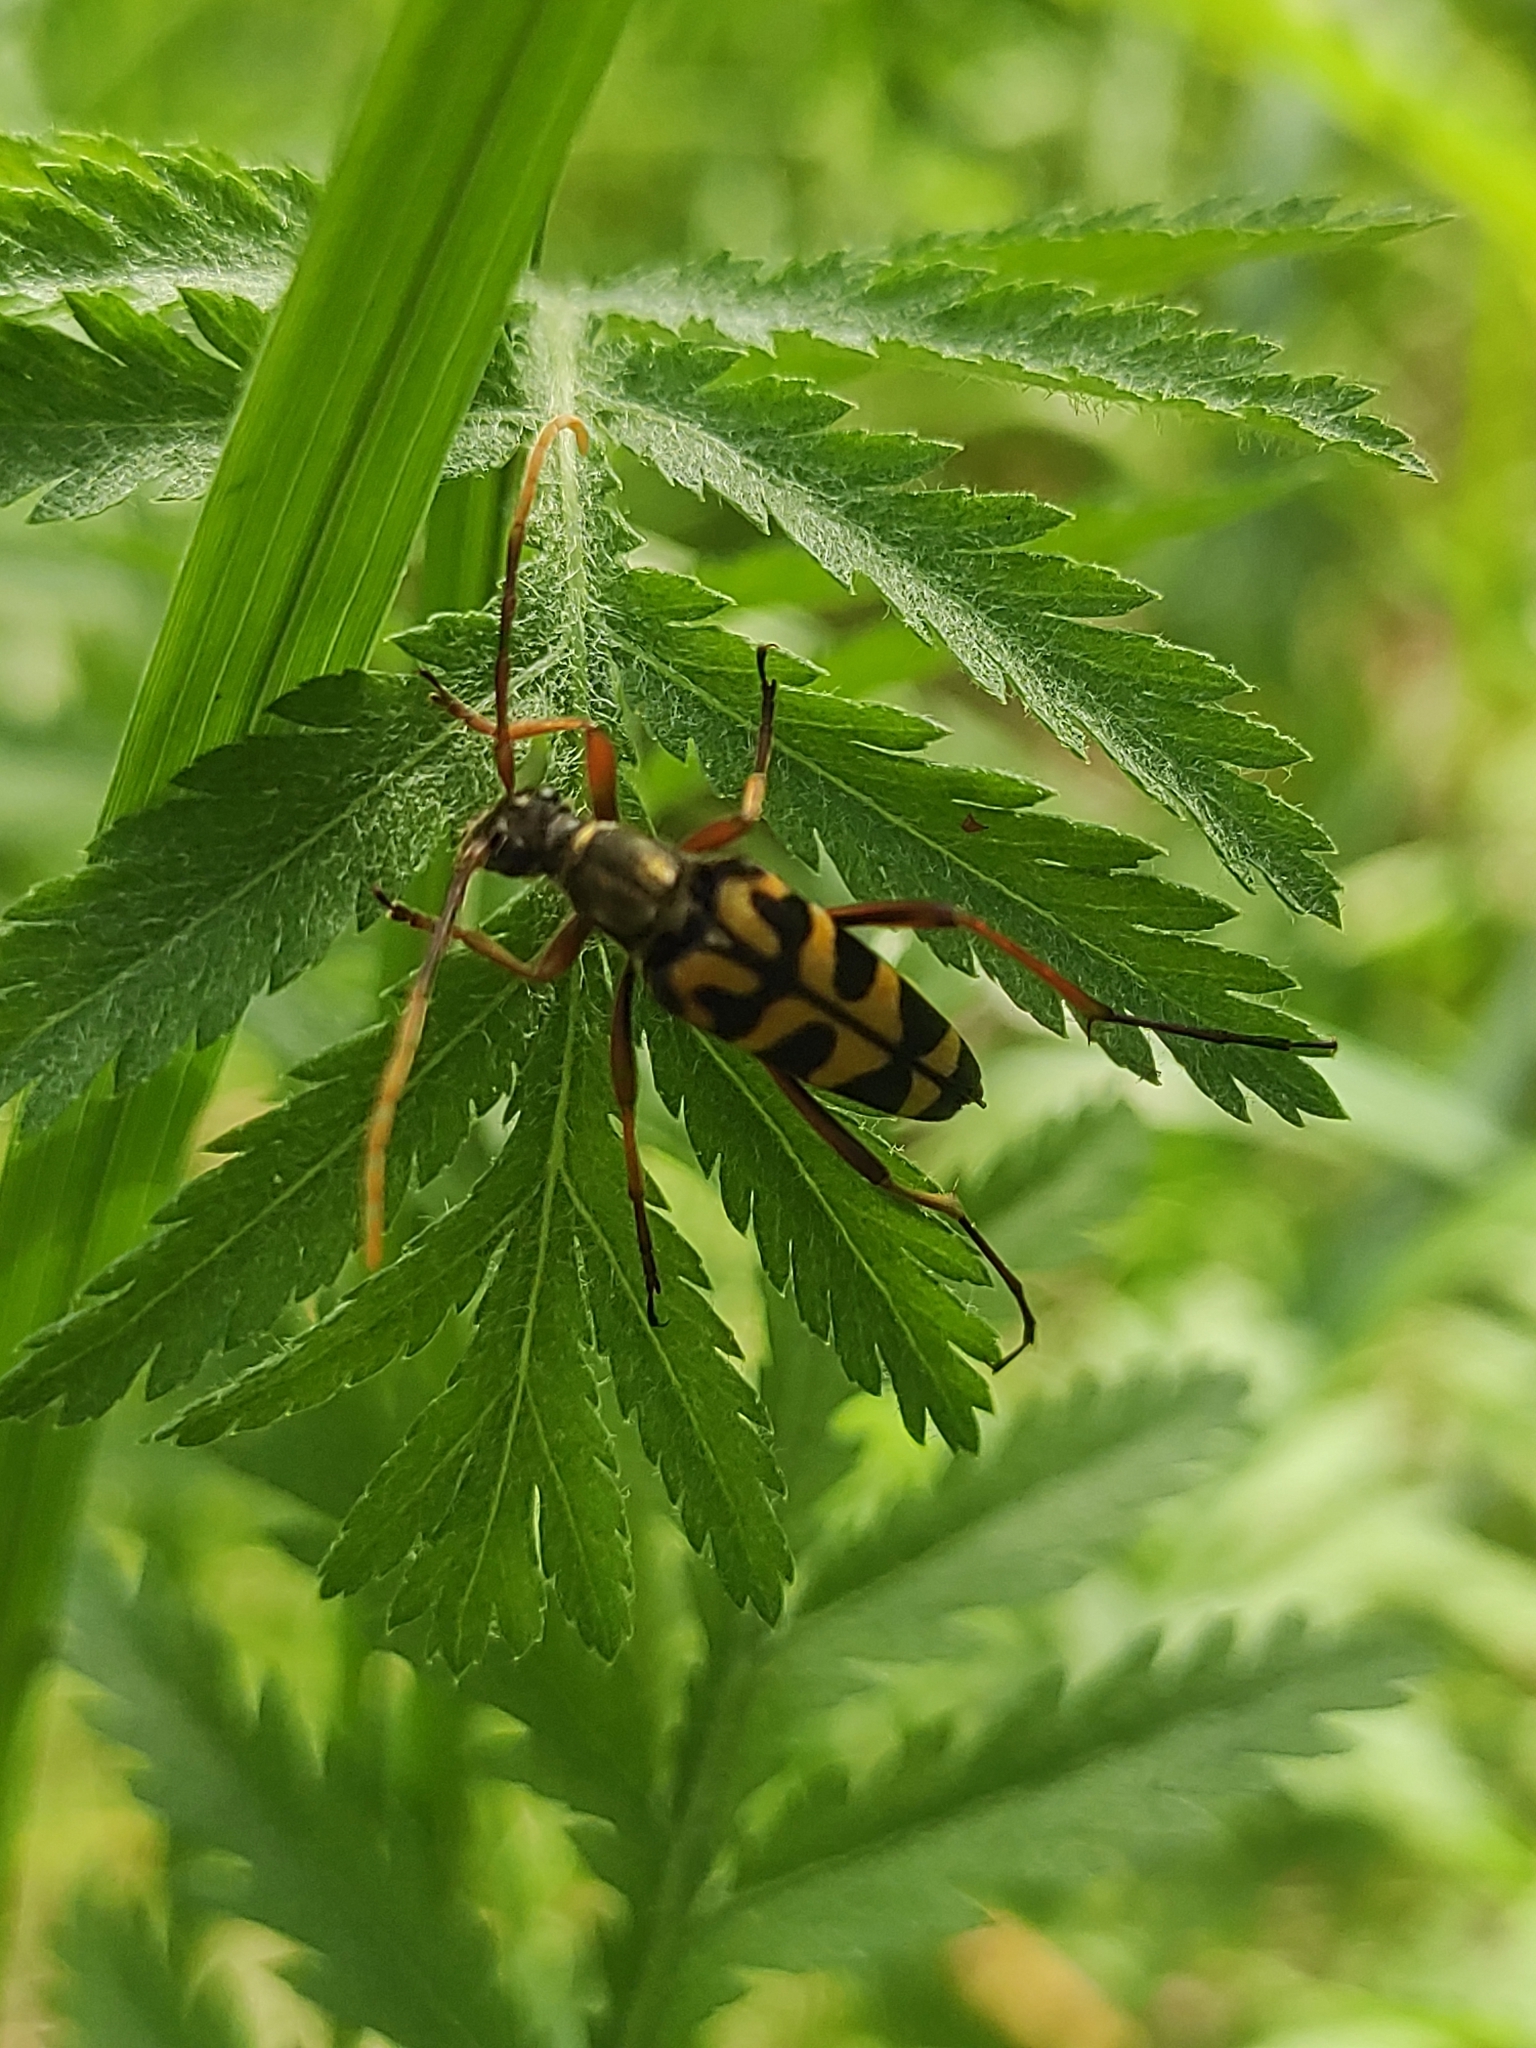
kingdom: Animalia
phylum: Arthropoda
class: Insecta
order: Coleoptera
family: Cerambycidae
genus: Leptura
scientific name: Leptura annularis
